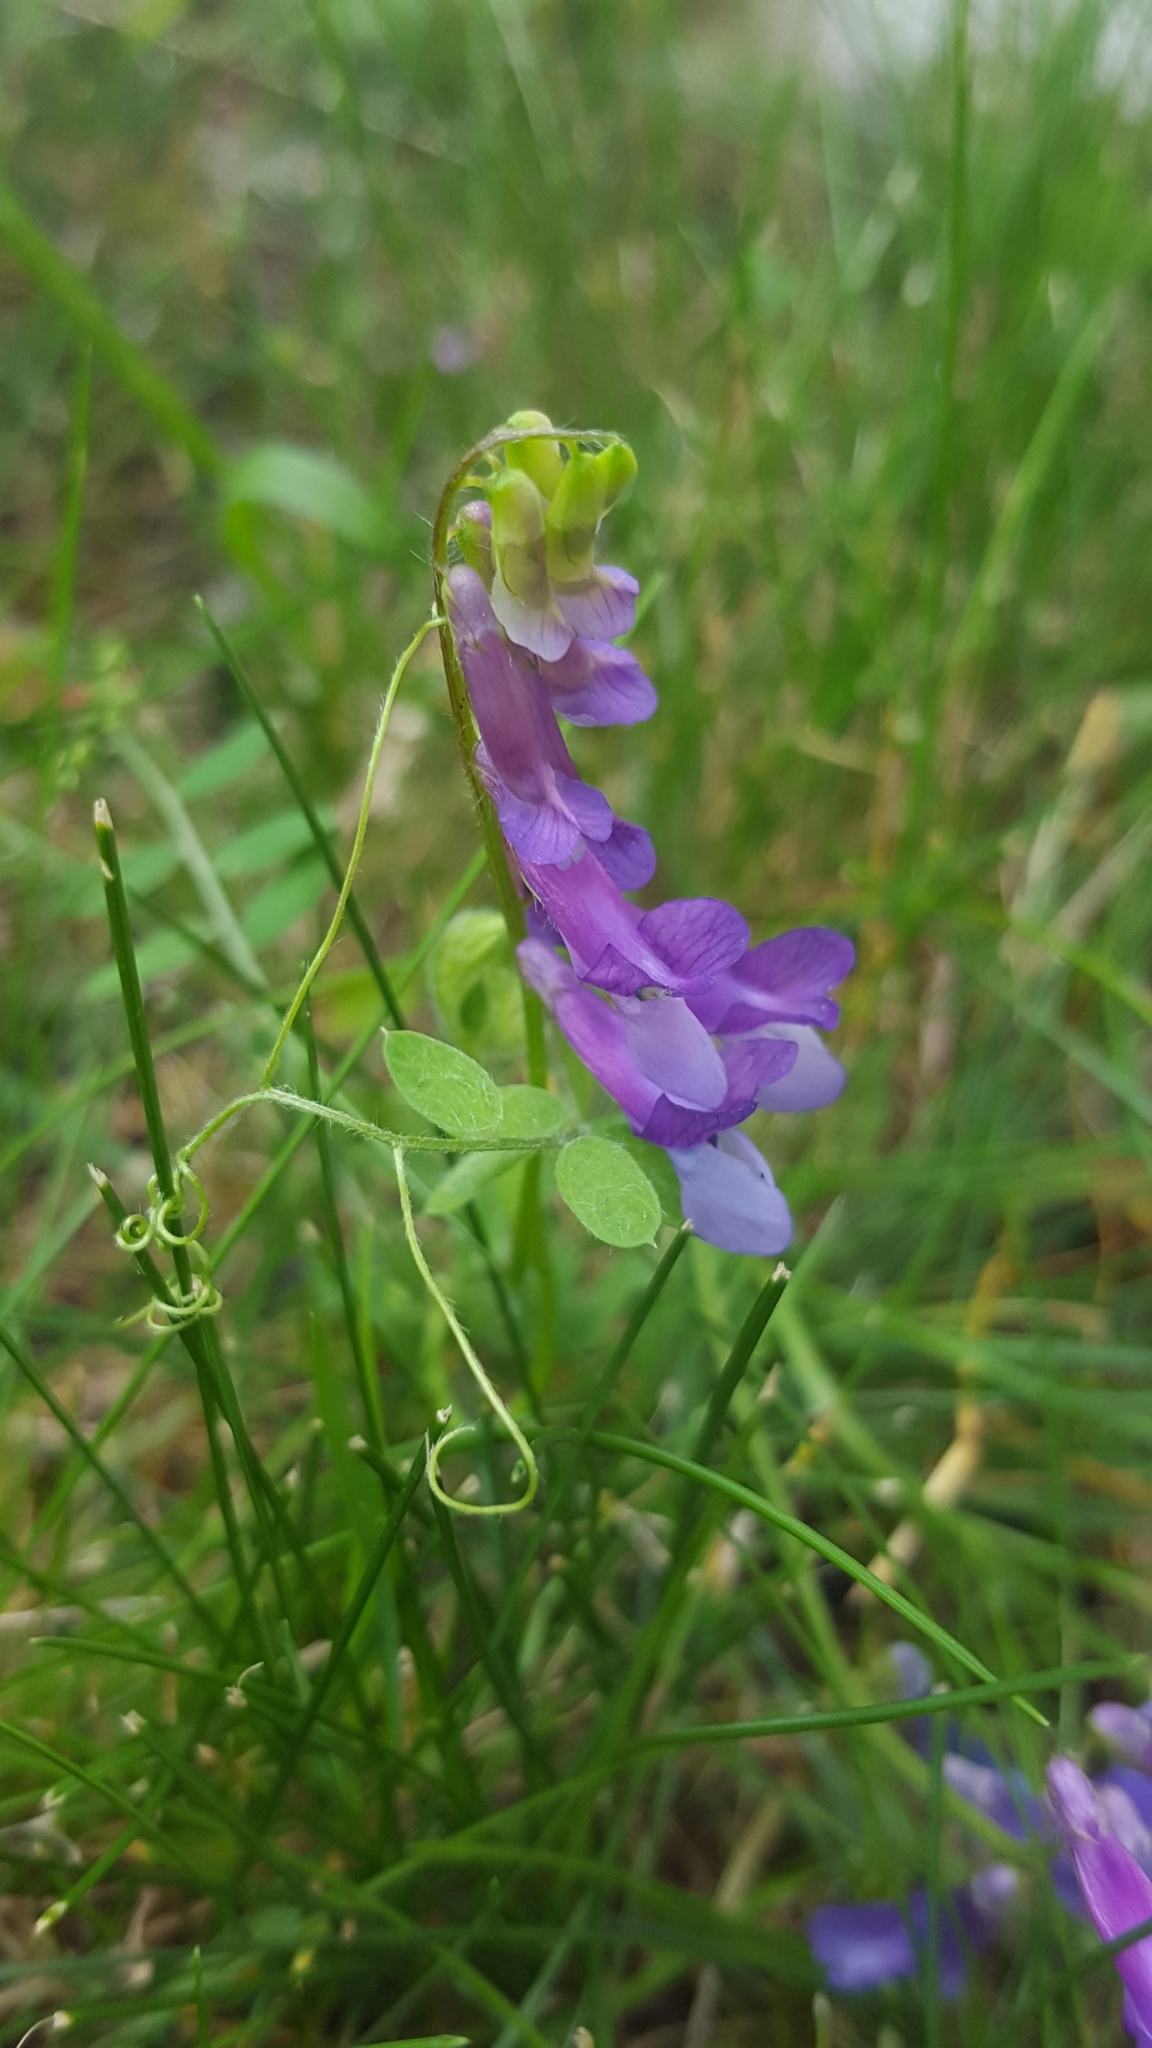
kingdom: Plantae
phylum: Tracheophyta
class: Magnoliopsida
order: Fabales
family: Fabaceae
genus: Vicia
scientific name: Vicia villosa
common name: Fodder vetch
